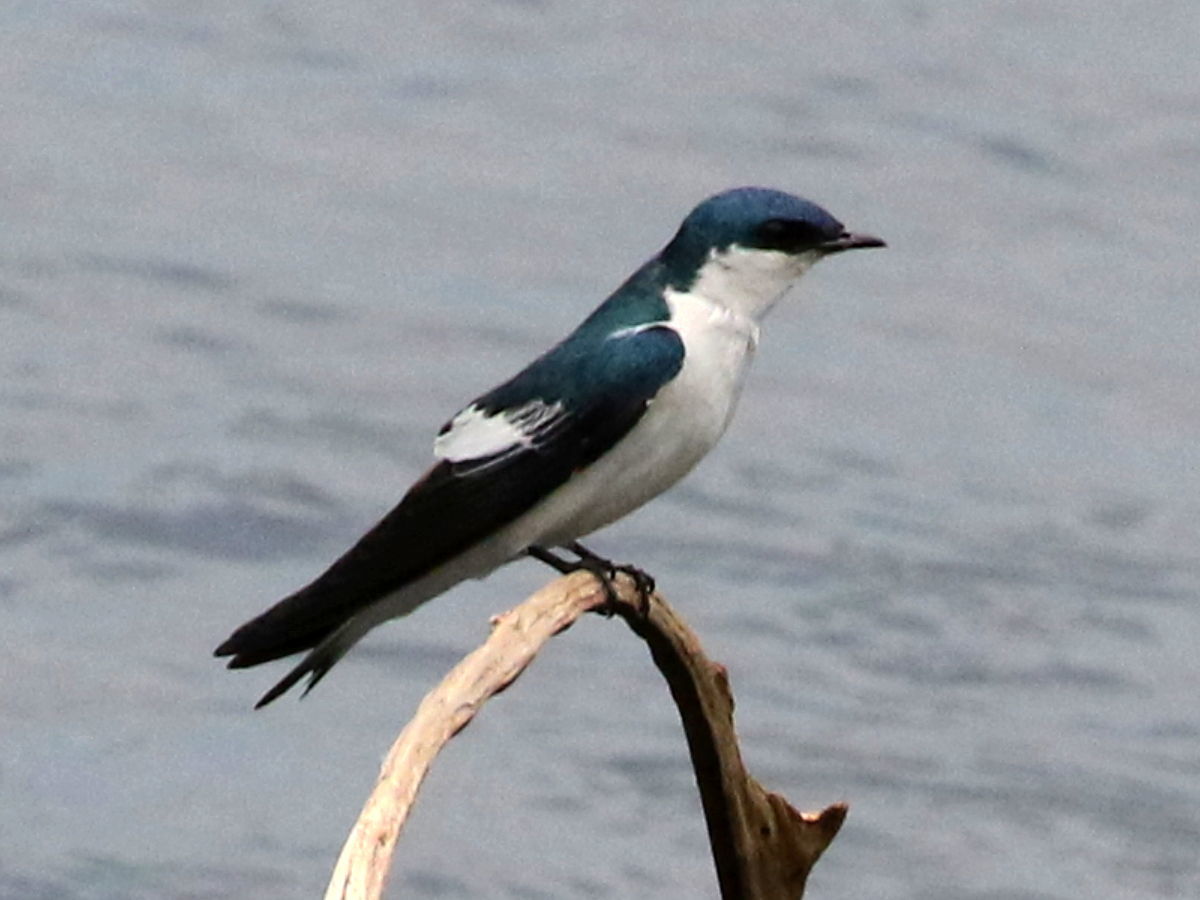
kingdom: Animalia
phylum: Chordata
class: Aves
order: Passeriformes
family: Hirundinidae
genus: Tachycineta
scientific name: Tachycineta albiventer
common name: White-winged swallow
